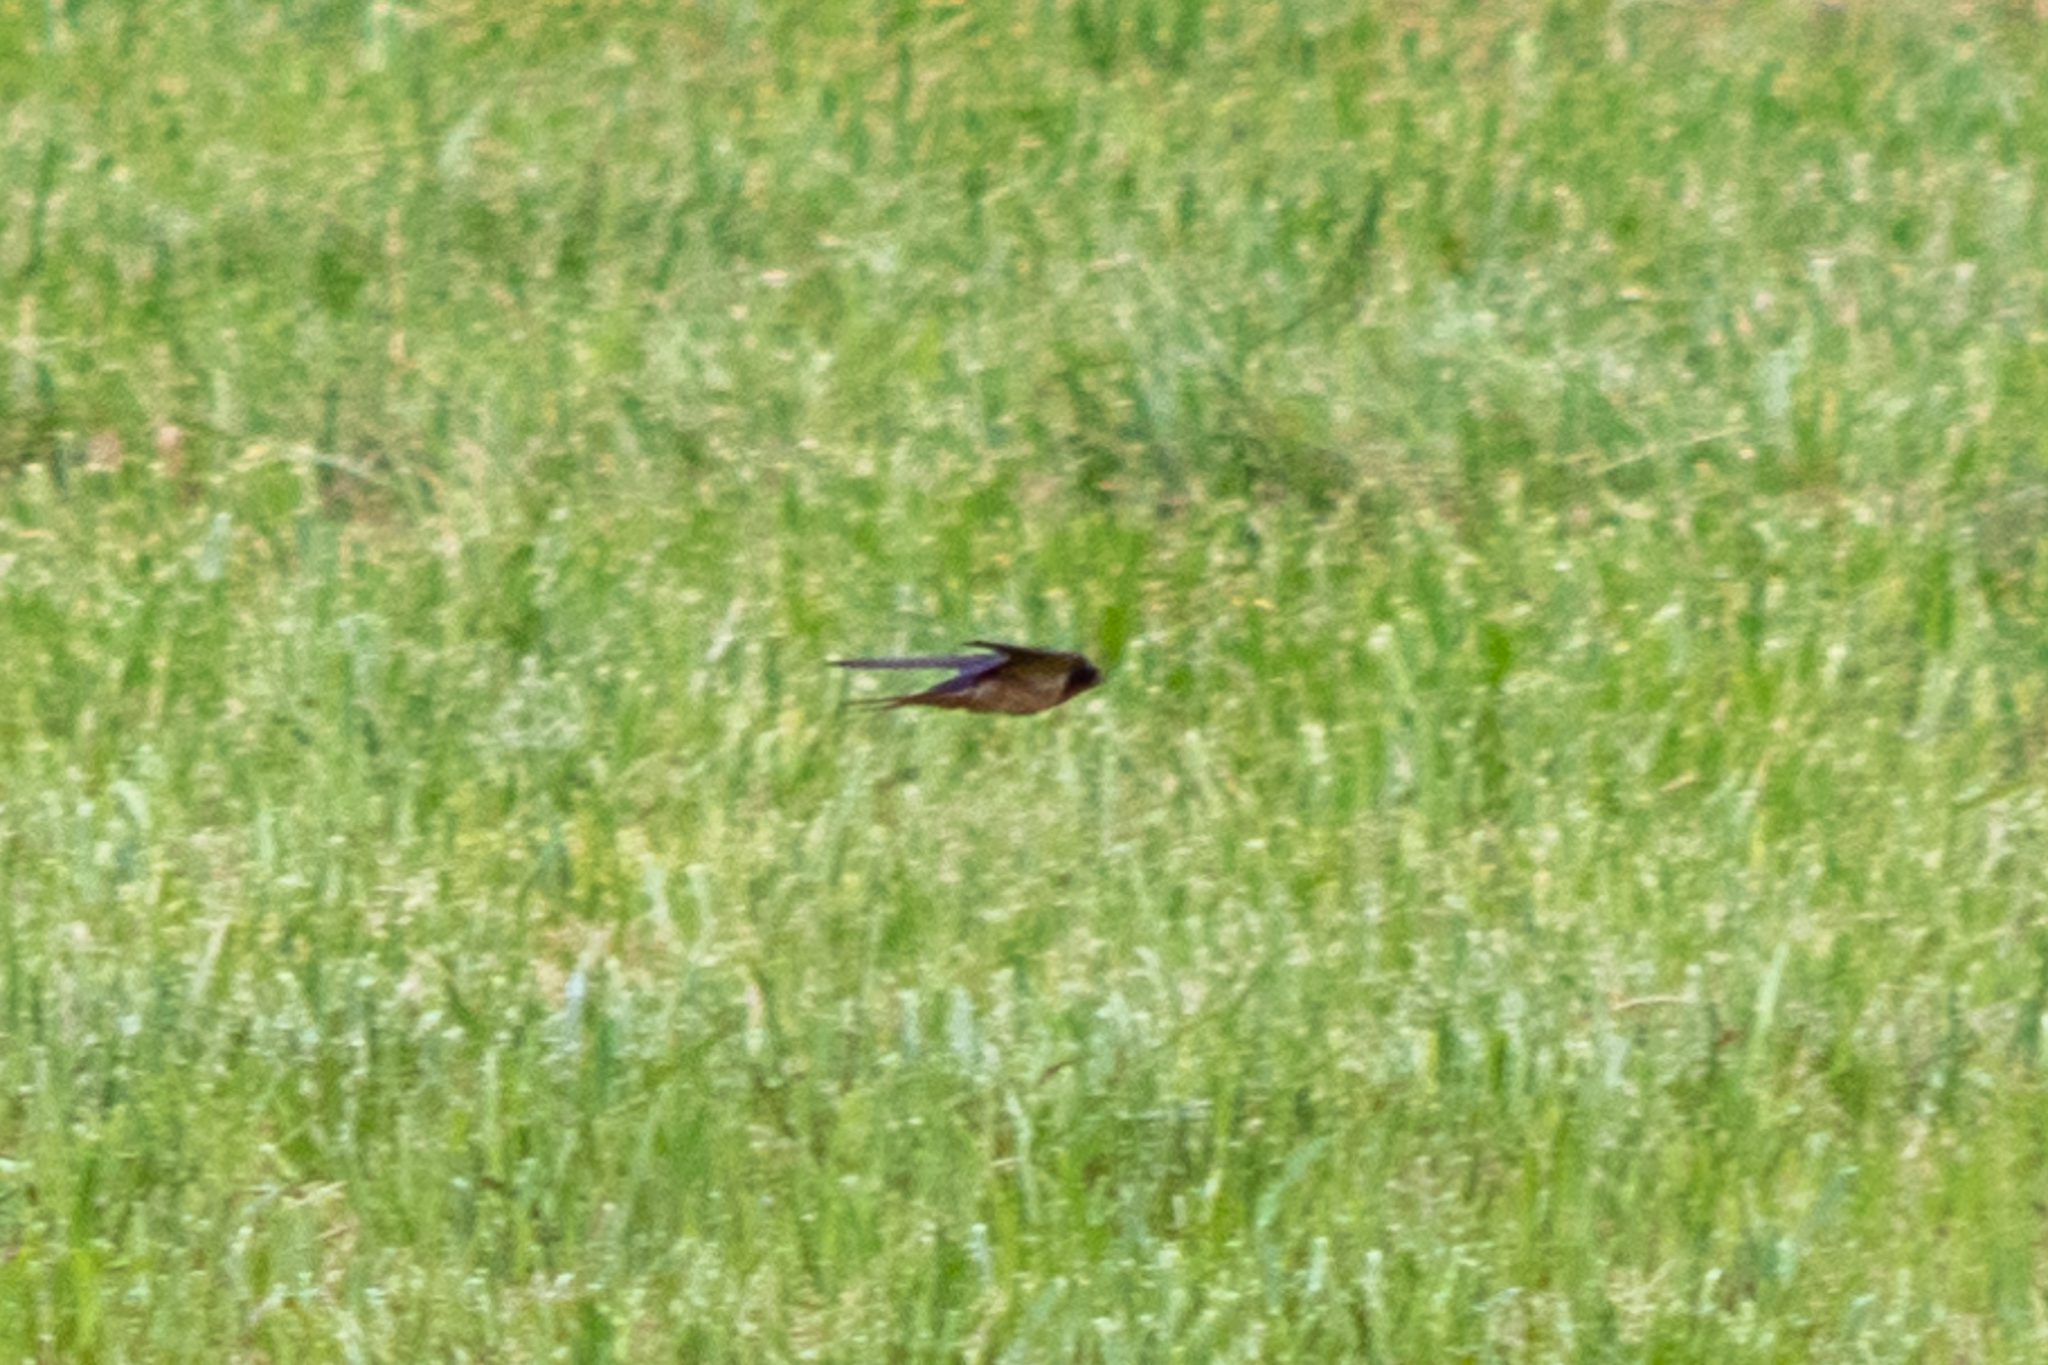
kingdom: Animalia
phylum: Chordata
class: Aves
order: Passeriformes
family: Hirundinidae
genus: Hirundo
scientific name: Hirundo rustica
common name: Barn swallow
